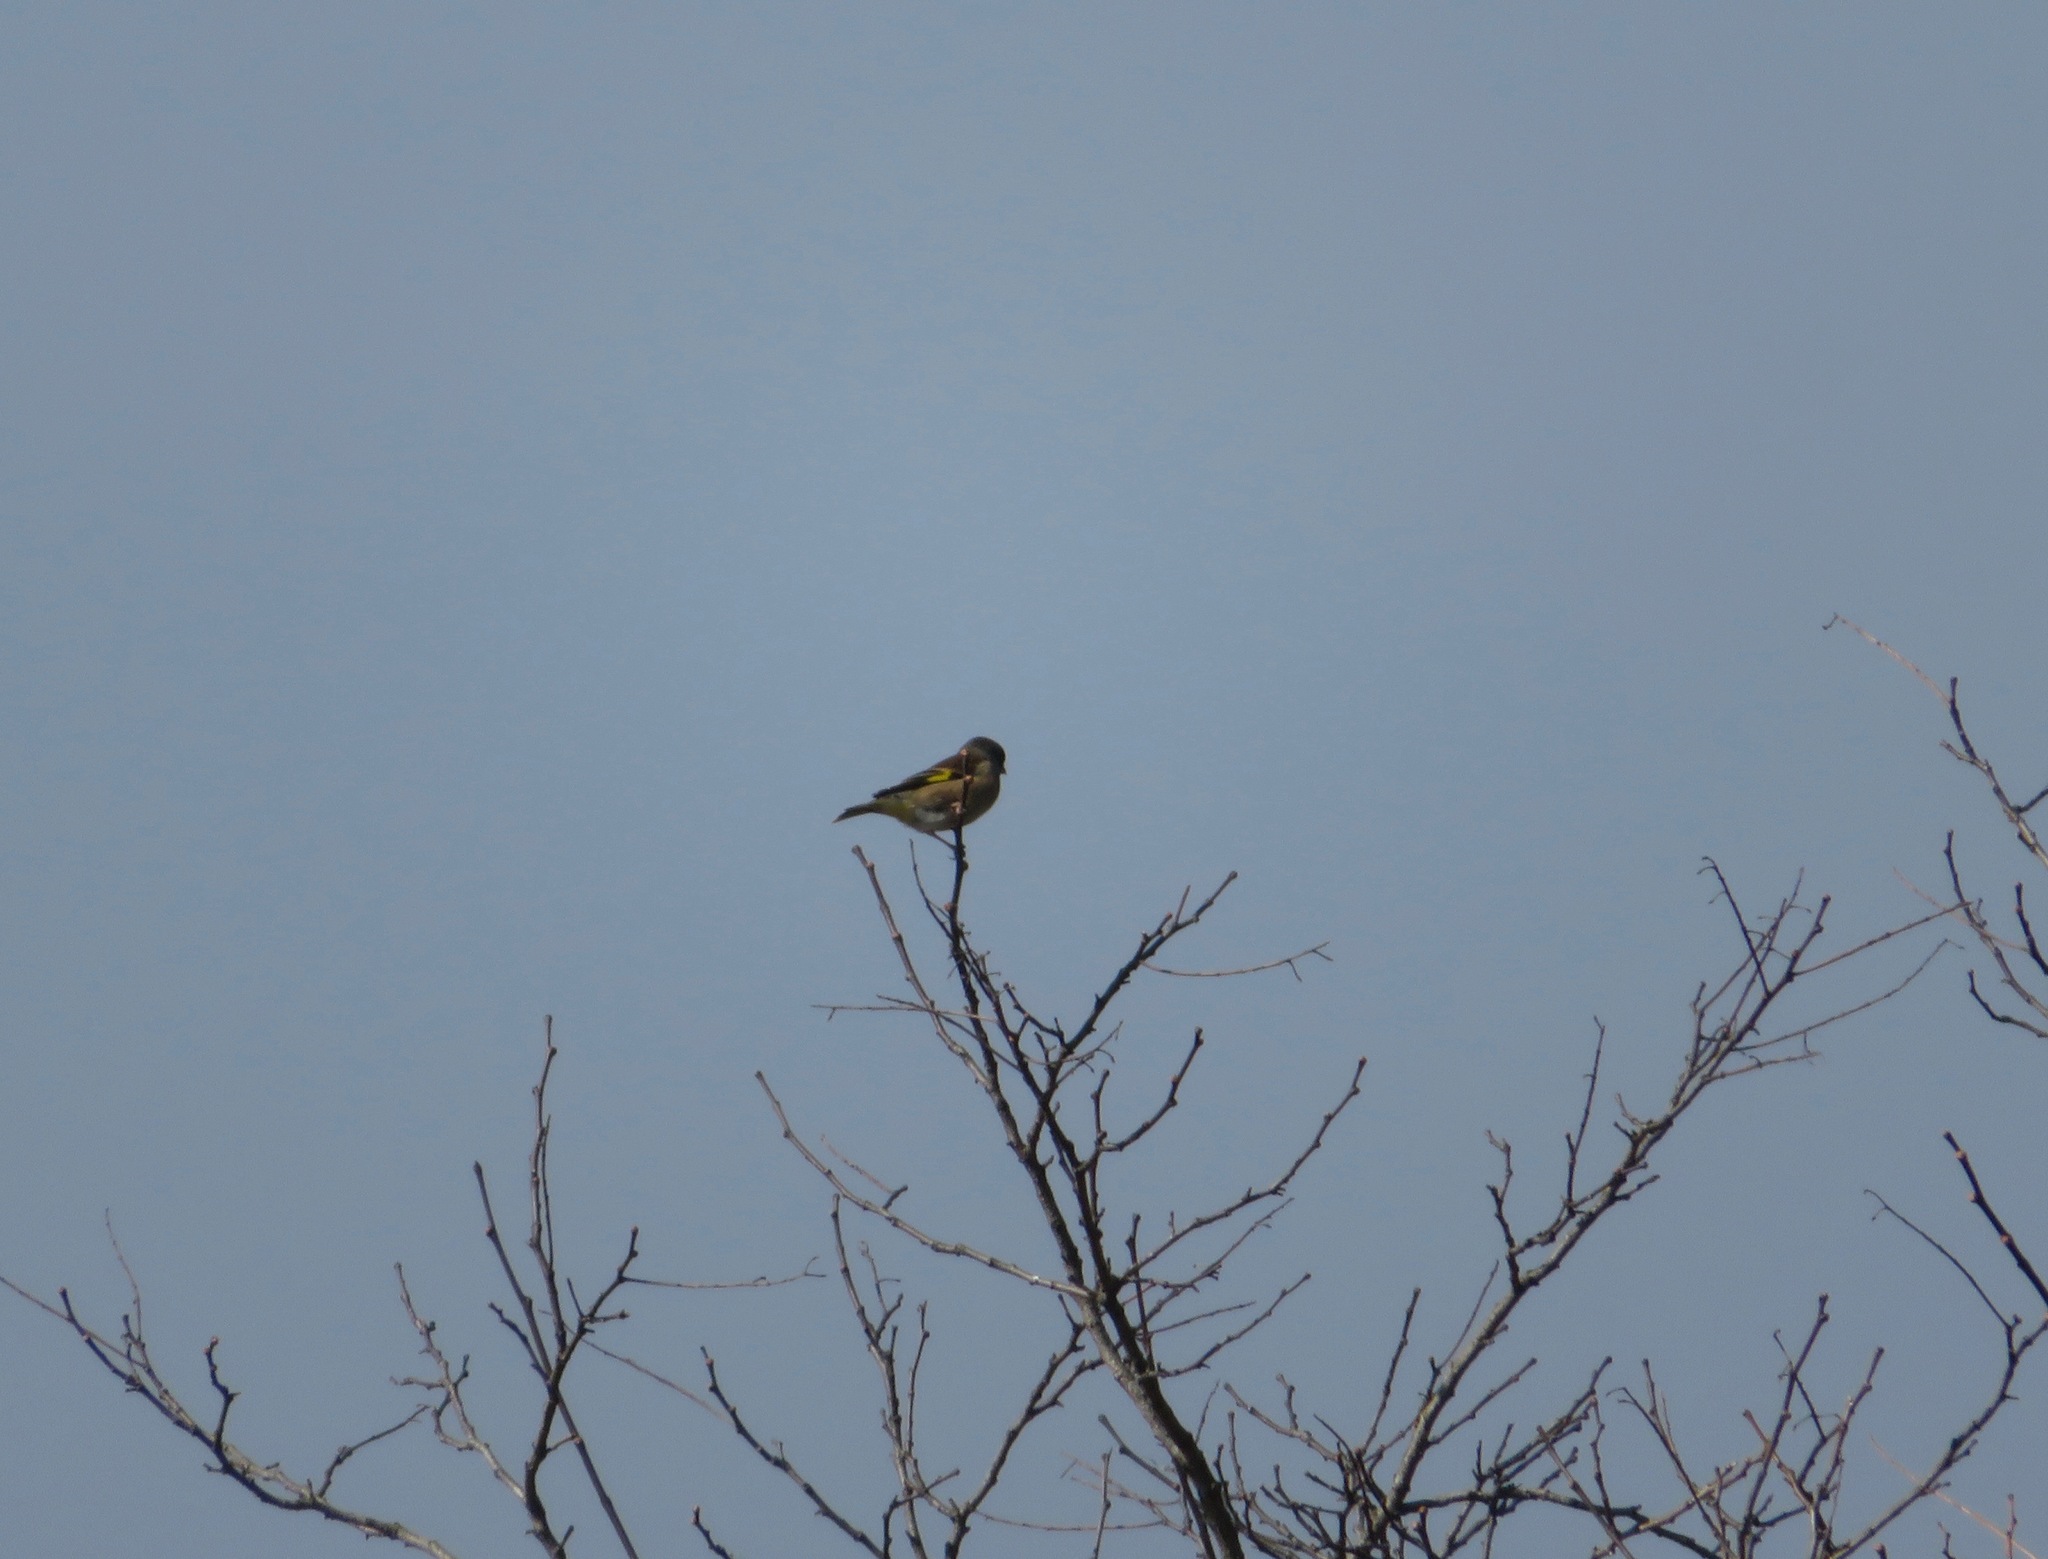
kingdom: Plantae
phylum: Tracheophyta
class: Liliopsida
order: Poales
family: Poaceae
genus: Chloris
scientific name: Chloris sinica
